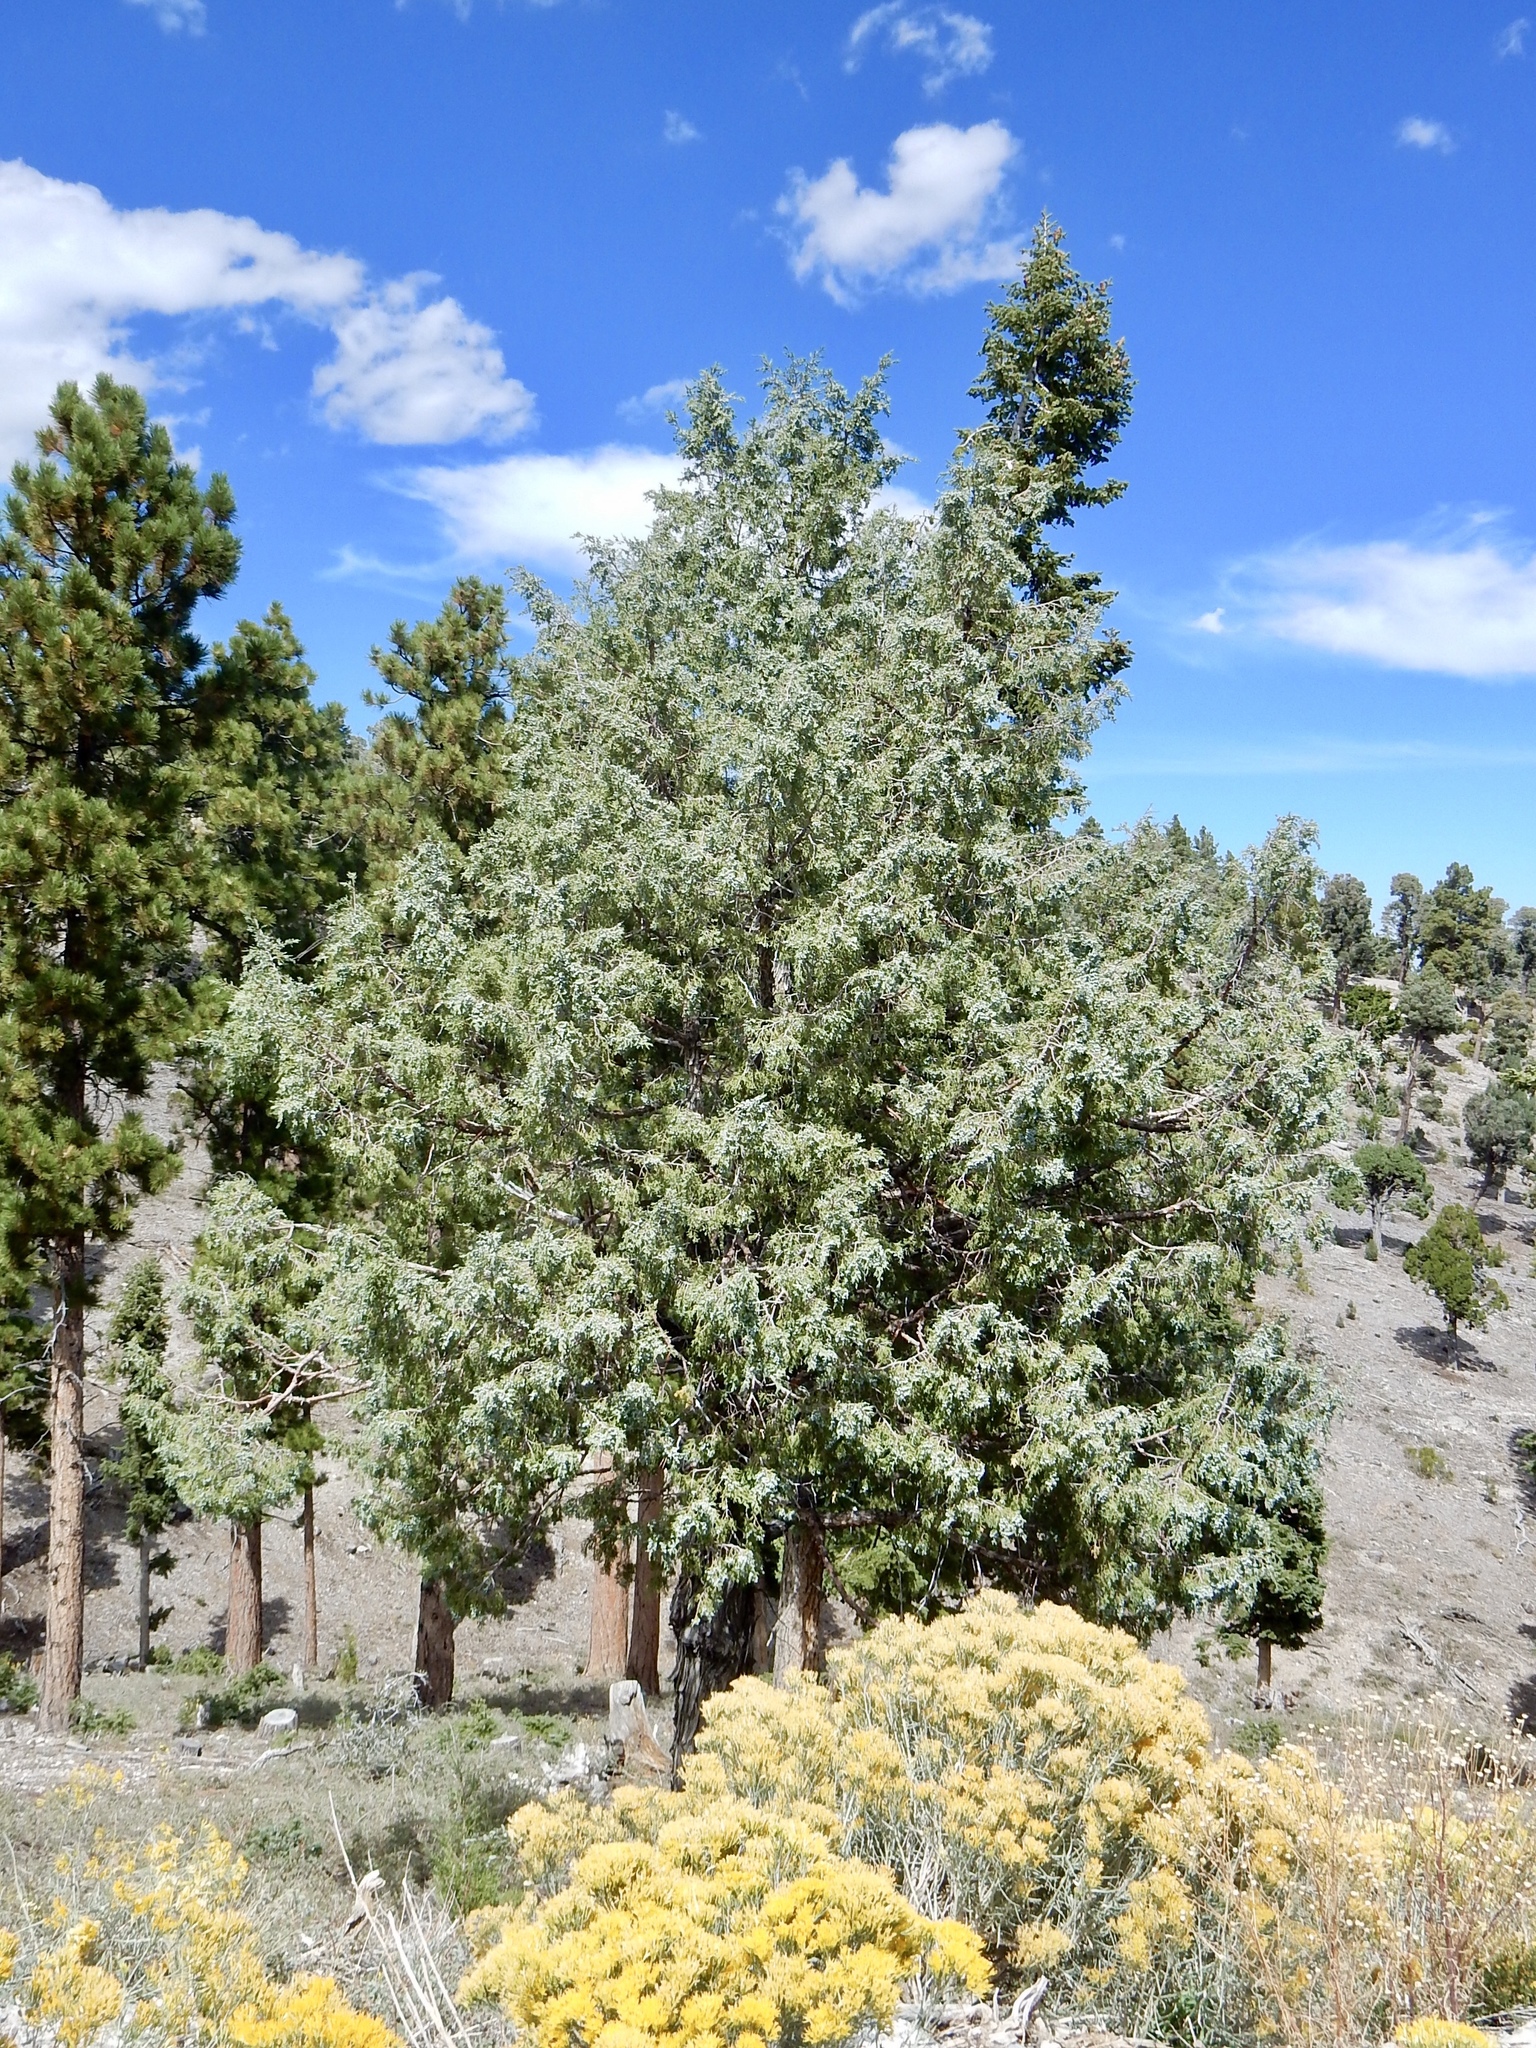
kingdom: Plantae
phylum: Tracheophyta
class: Pinopsida
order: Pinales
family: Cupressaceae
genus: Juniperus
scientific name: Juniperus osteosperma
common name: Utah juniper
